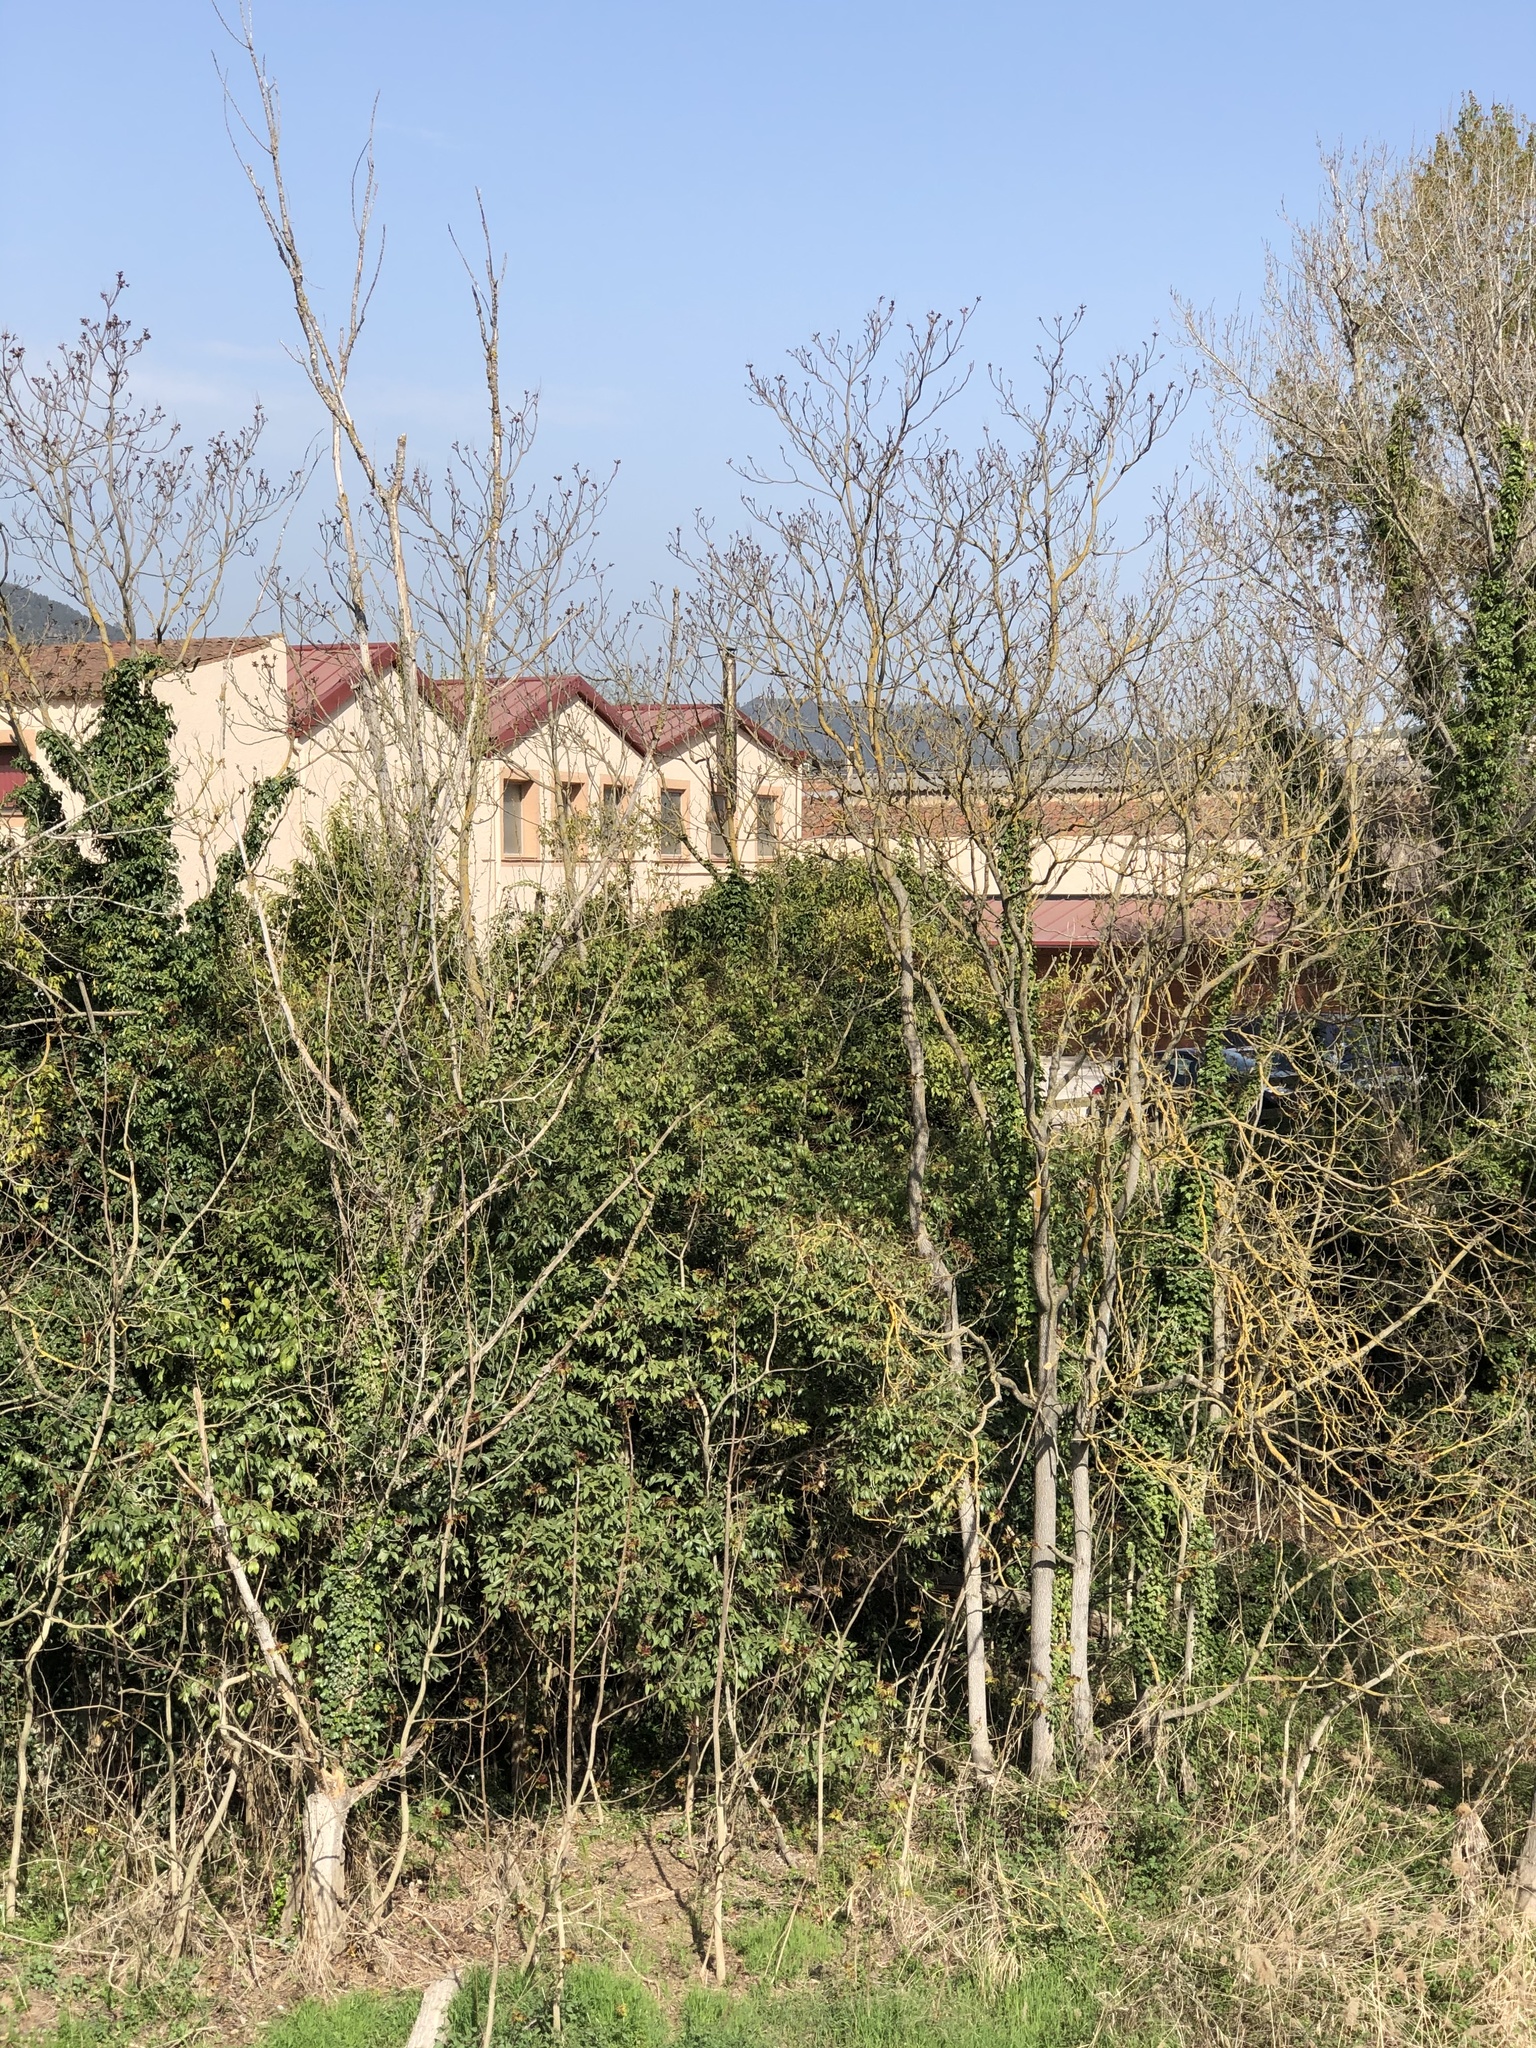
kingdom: Plantae
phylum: Tracheophyta
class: Magnoliopsida
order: Sapindales
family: Simaroubaceae
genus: Ailanthus
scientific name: Ailanthus altissima
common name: Tree-of-heaven
